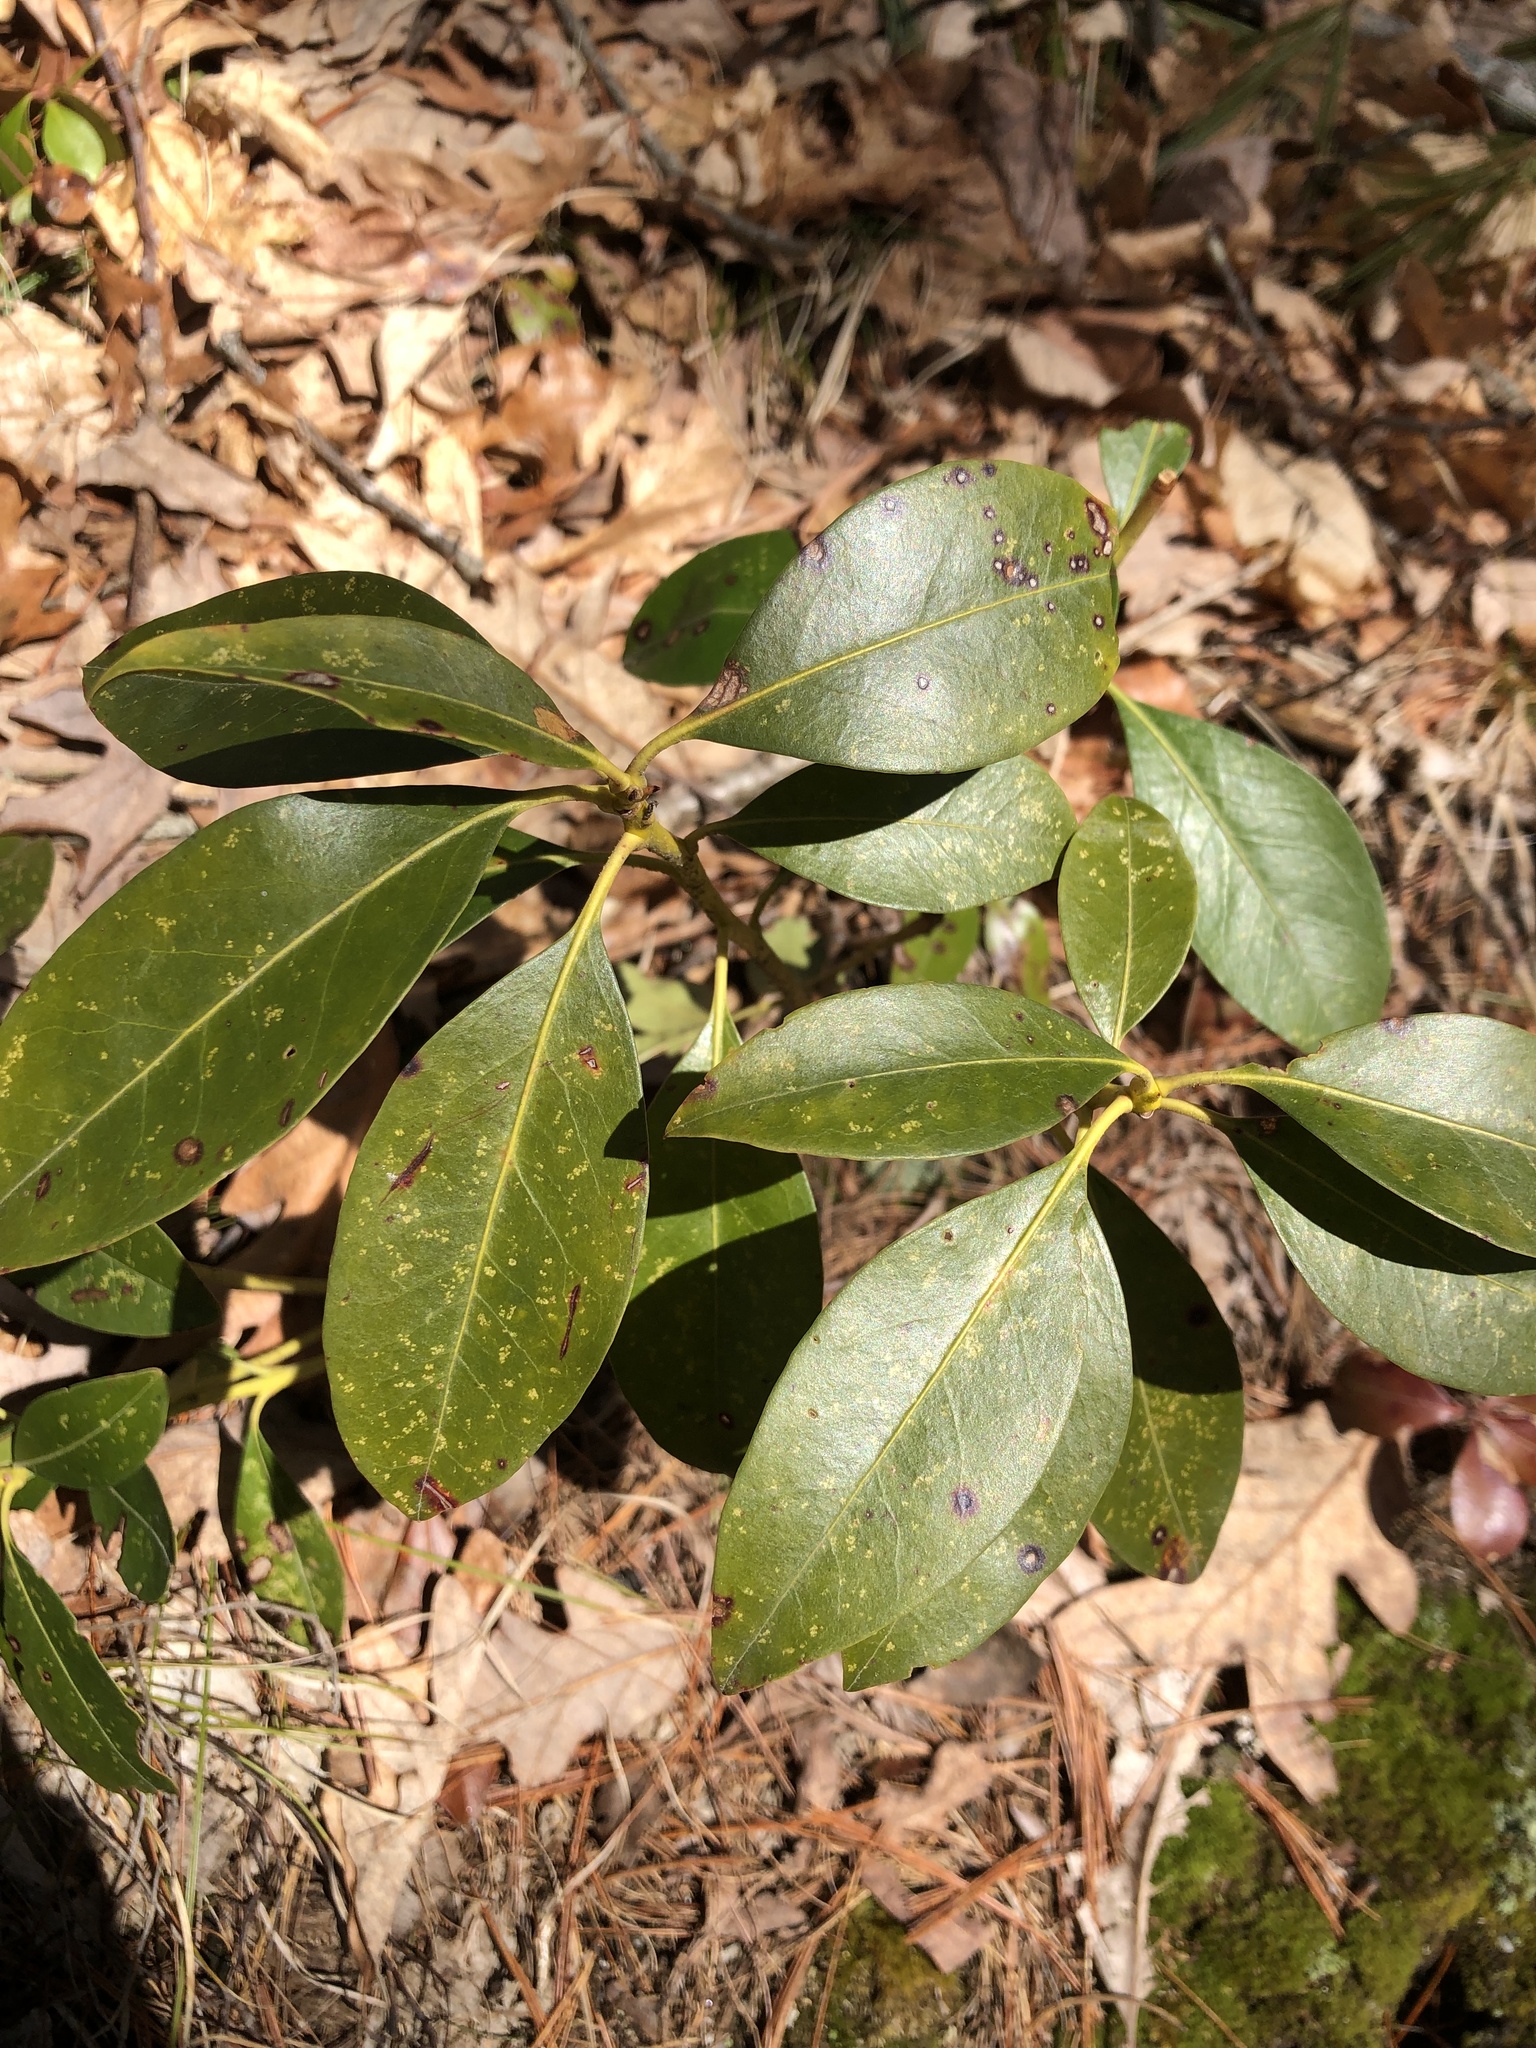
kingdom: Plantae
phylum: Tracheophyta
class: Magnoliopsida
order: Ericales
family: Ericaceae
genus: Kalmia
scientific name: Kalmia latifolia
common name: Mountain-laurel
